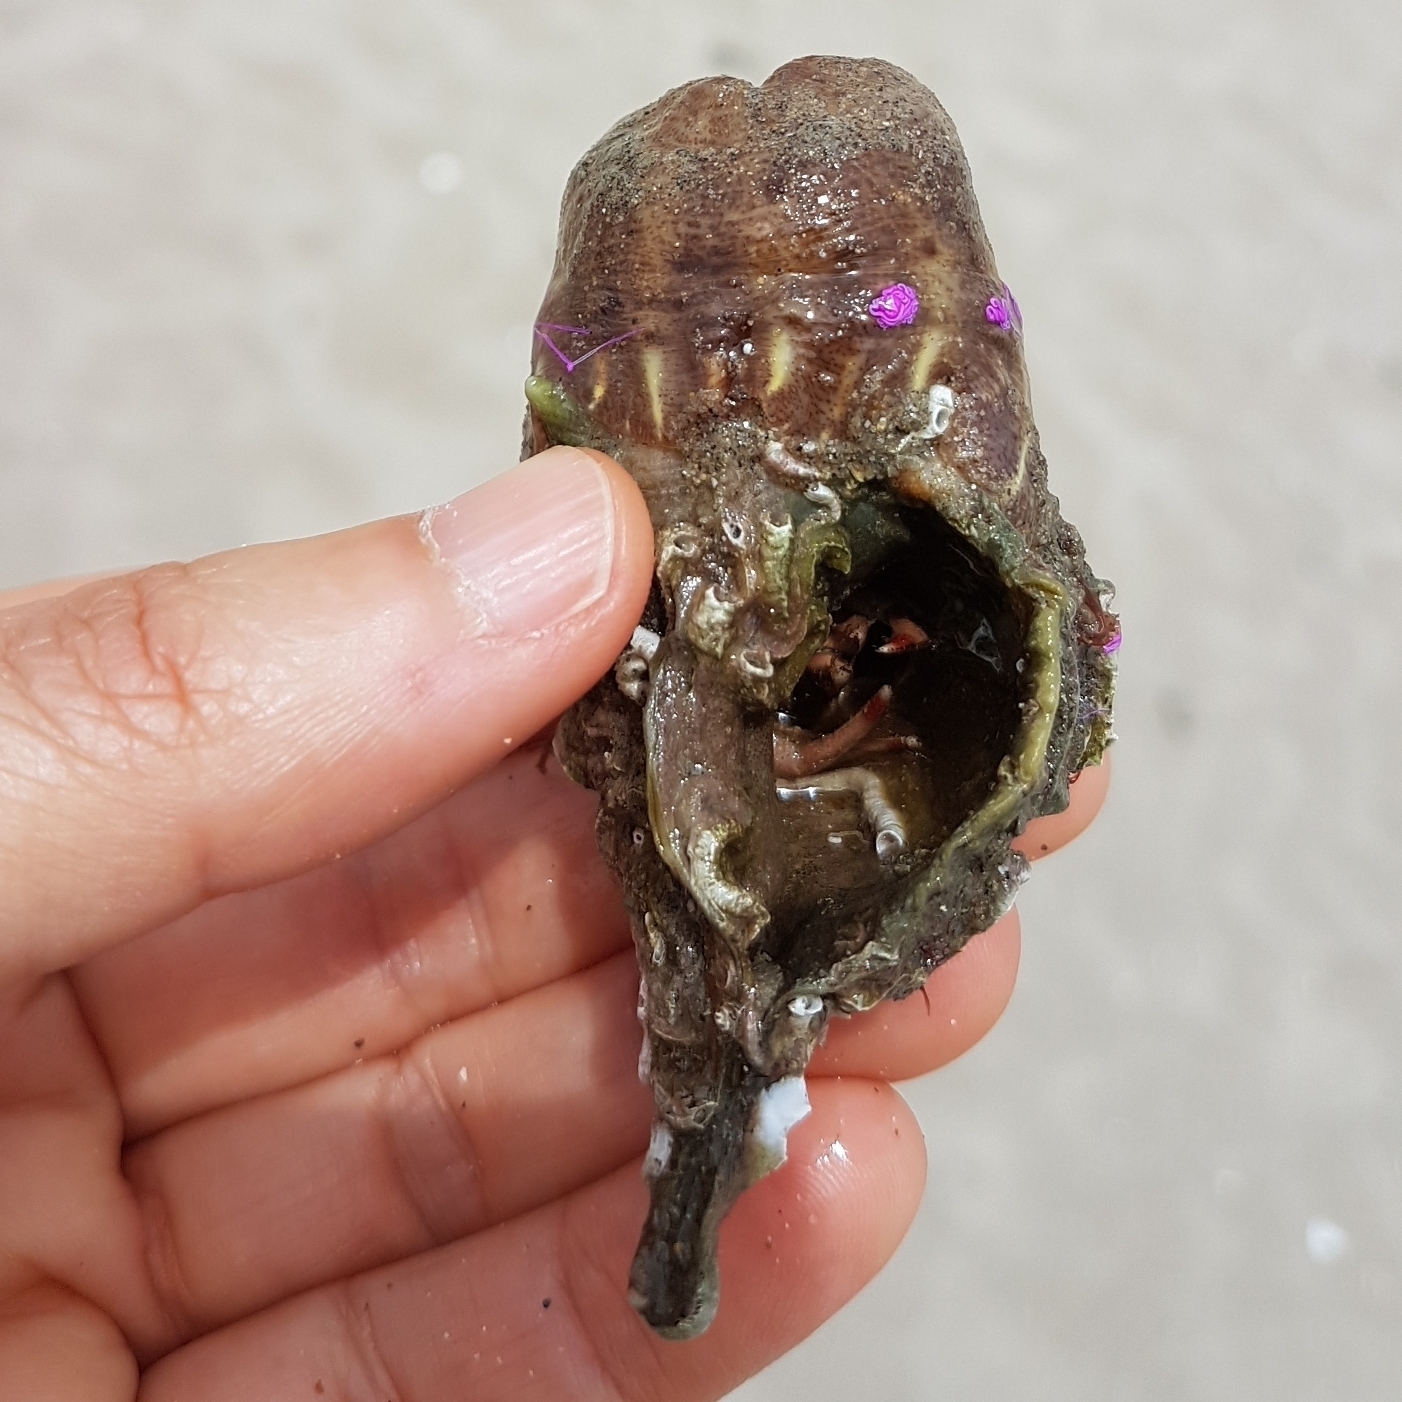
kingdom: Animalia
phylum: Cnidaria
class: Anthozoa
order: Actiniaria
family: Hormathiidae
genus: Calliactis
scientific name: Calliactis parasitica
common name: Parasitic anemone
